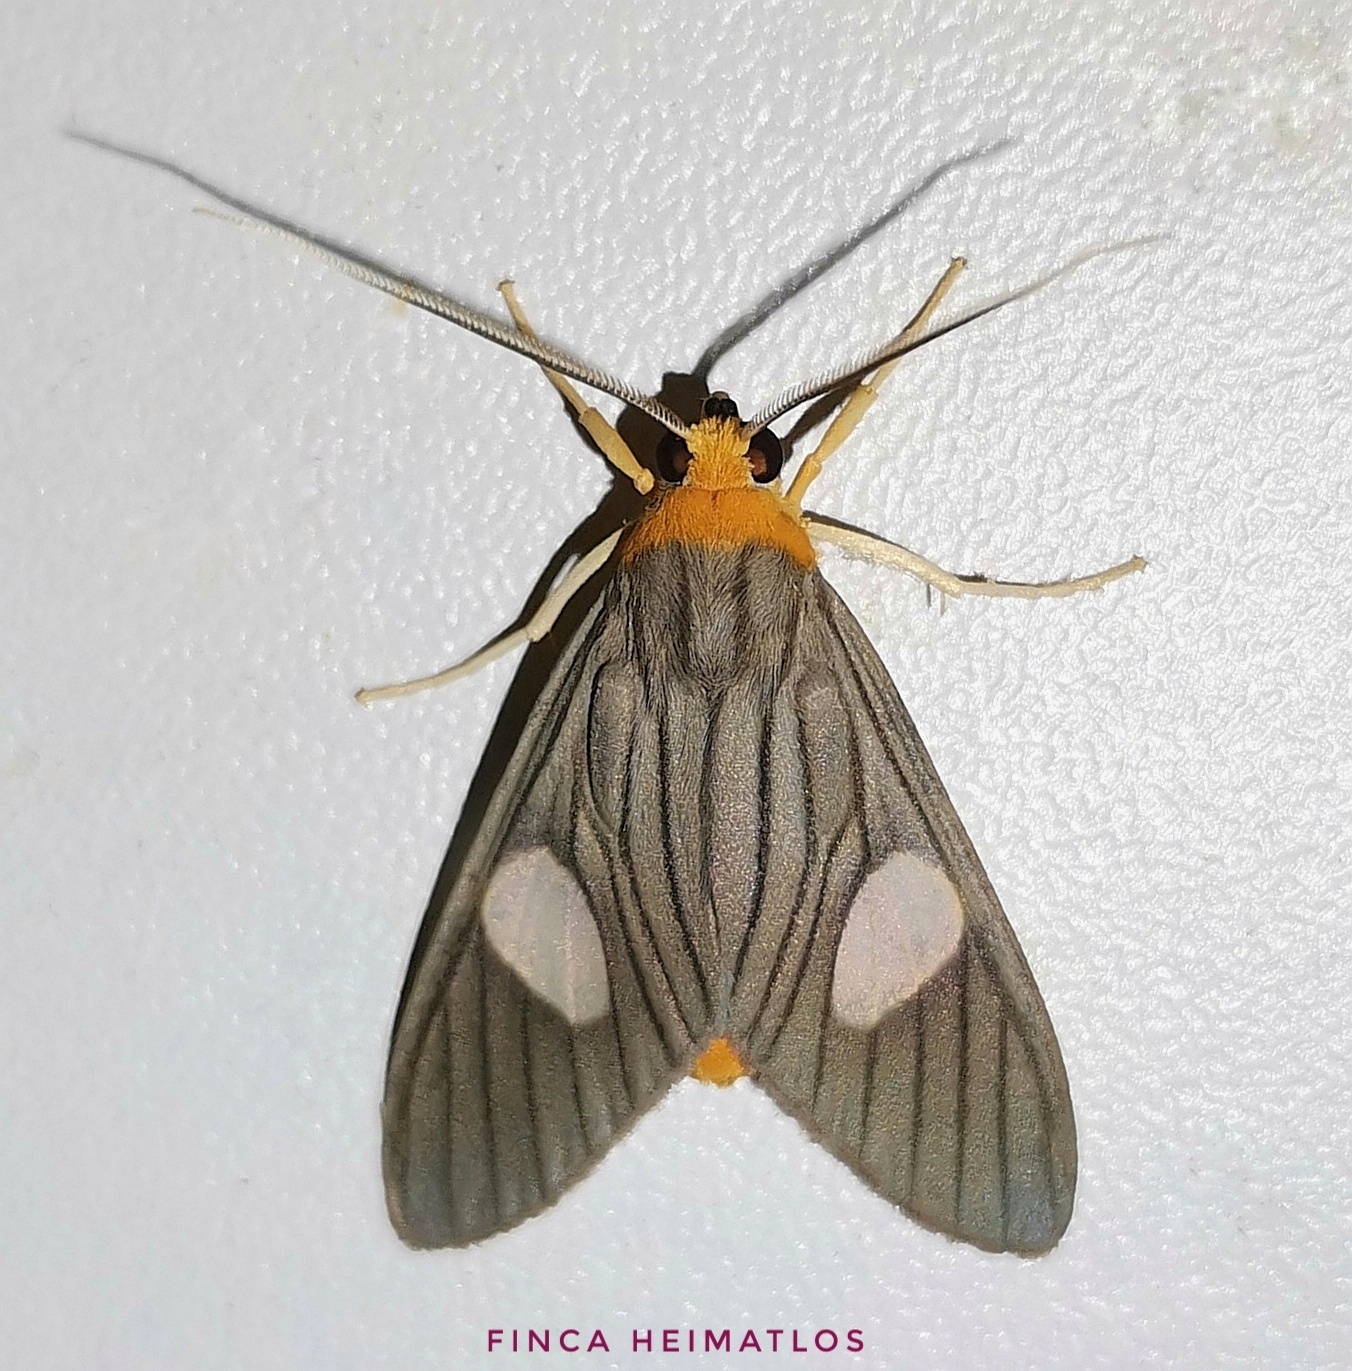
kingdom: Animalia
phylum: Arthropoda
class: Insecta
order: Lepidoptera
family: Erebidae
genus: Neritos
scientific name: Neritos sorex
